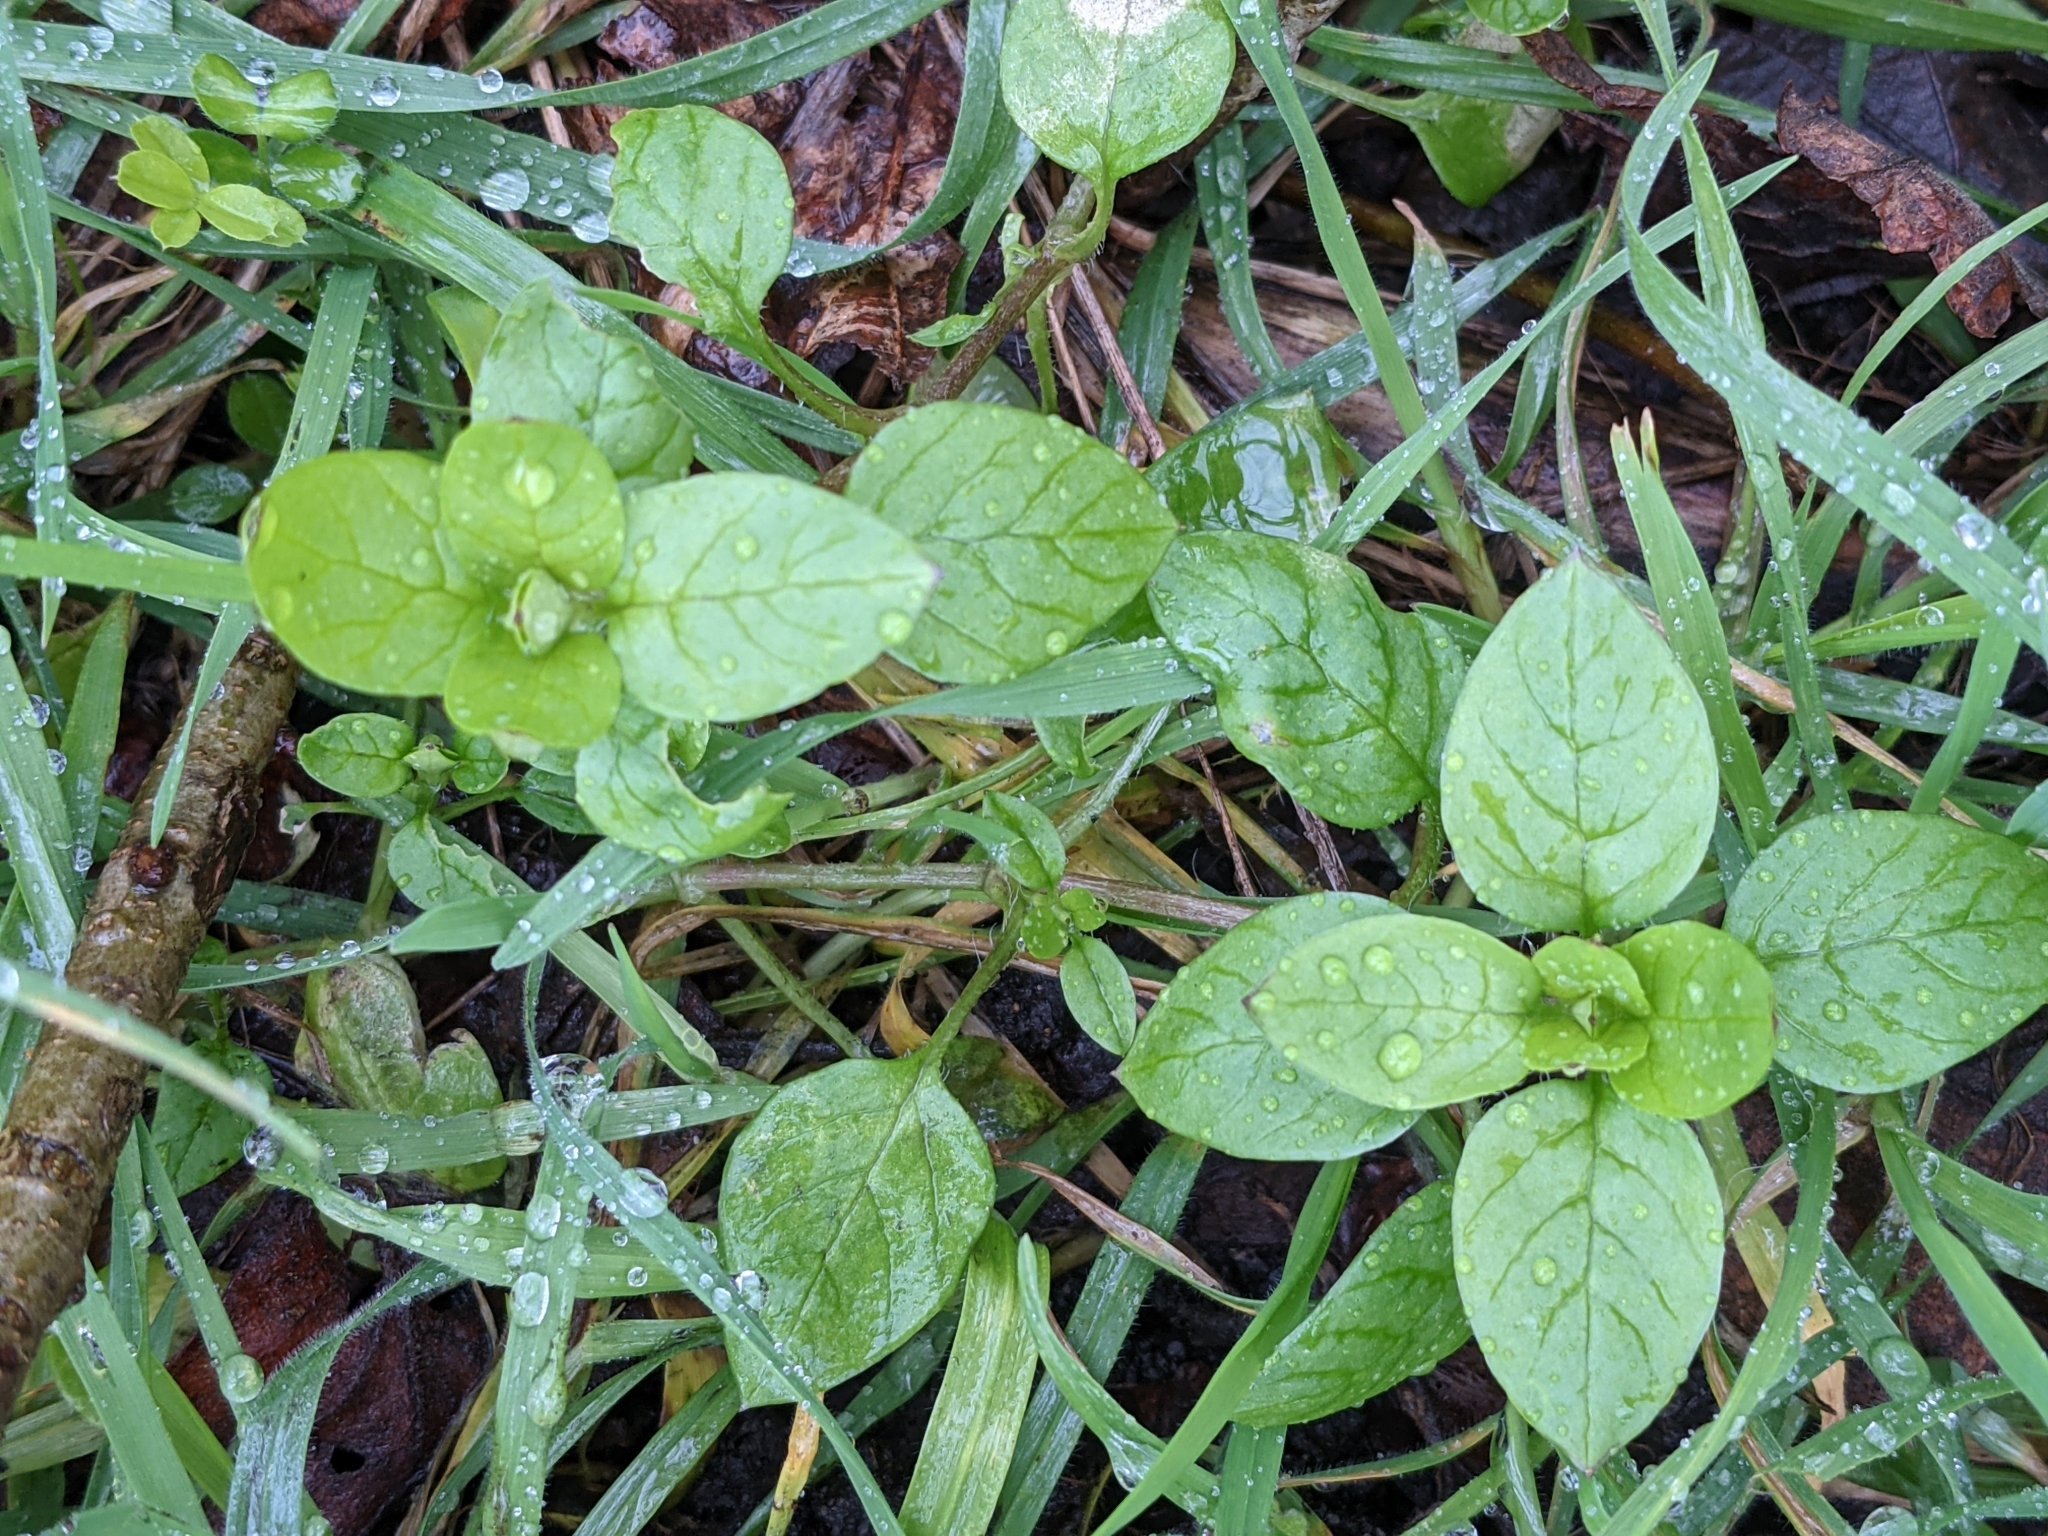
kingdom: Plantae
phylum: Tracheophyta
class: Magnoliopsida
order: Caryophyllales
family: Caryophyllaceae
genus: Stellaria
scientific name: Stellaria media
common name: Common chickweed
